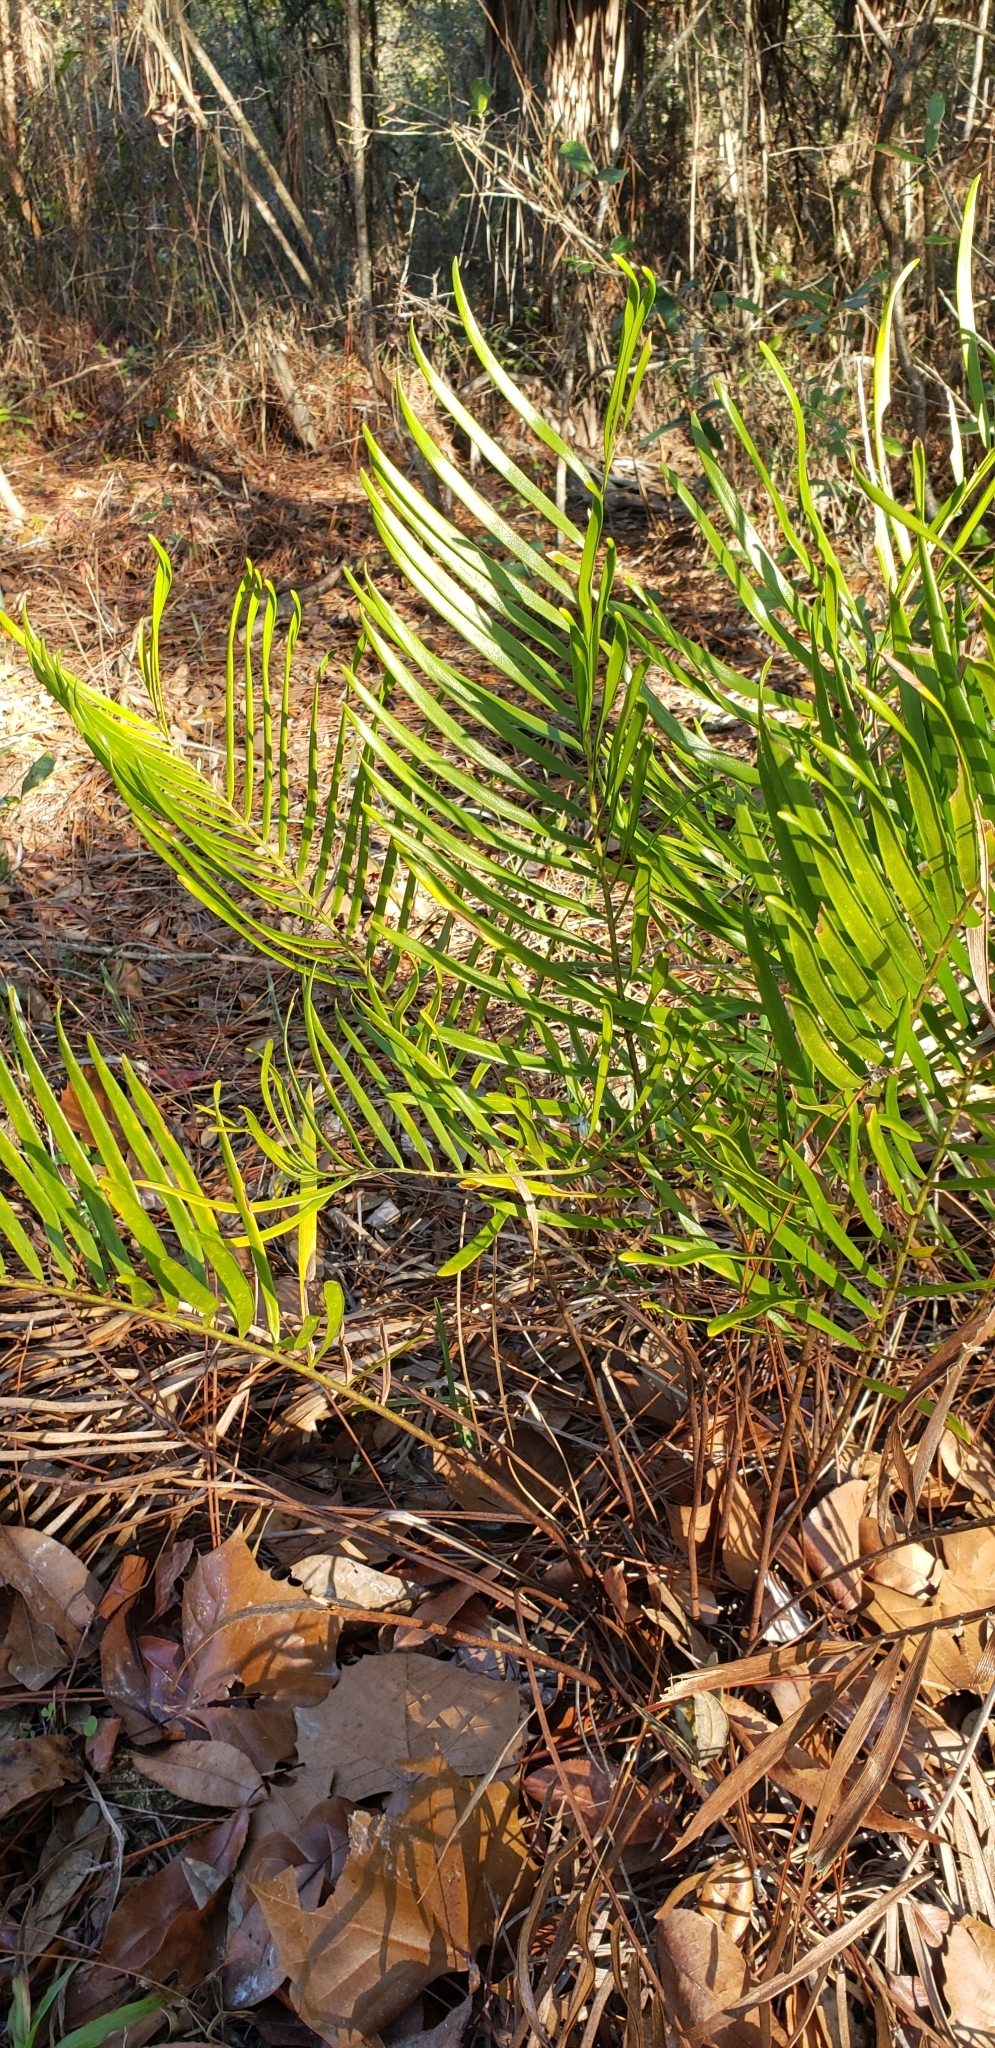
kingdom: Plantae
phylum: Tracheophyta
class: Cycadopsida
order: Cycadales
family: Zamiaceae
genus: Zamia
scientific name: Zamia integrifolia
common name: Florida arrowroot
